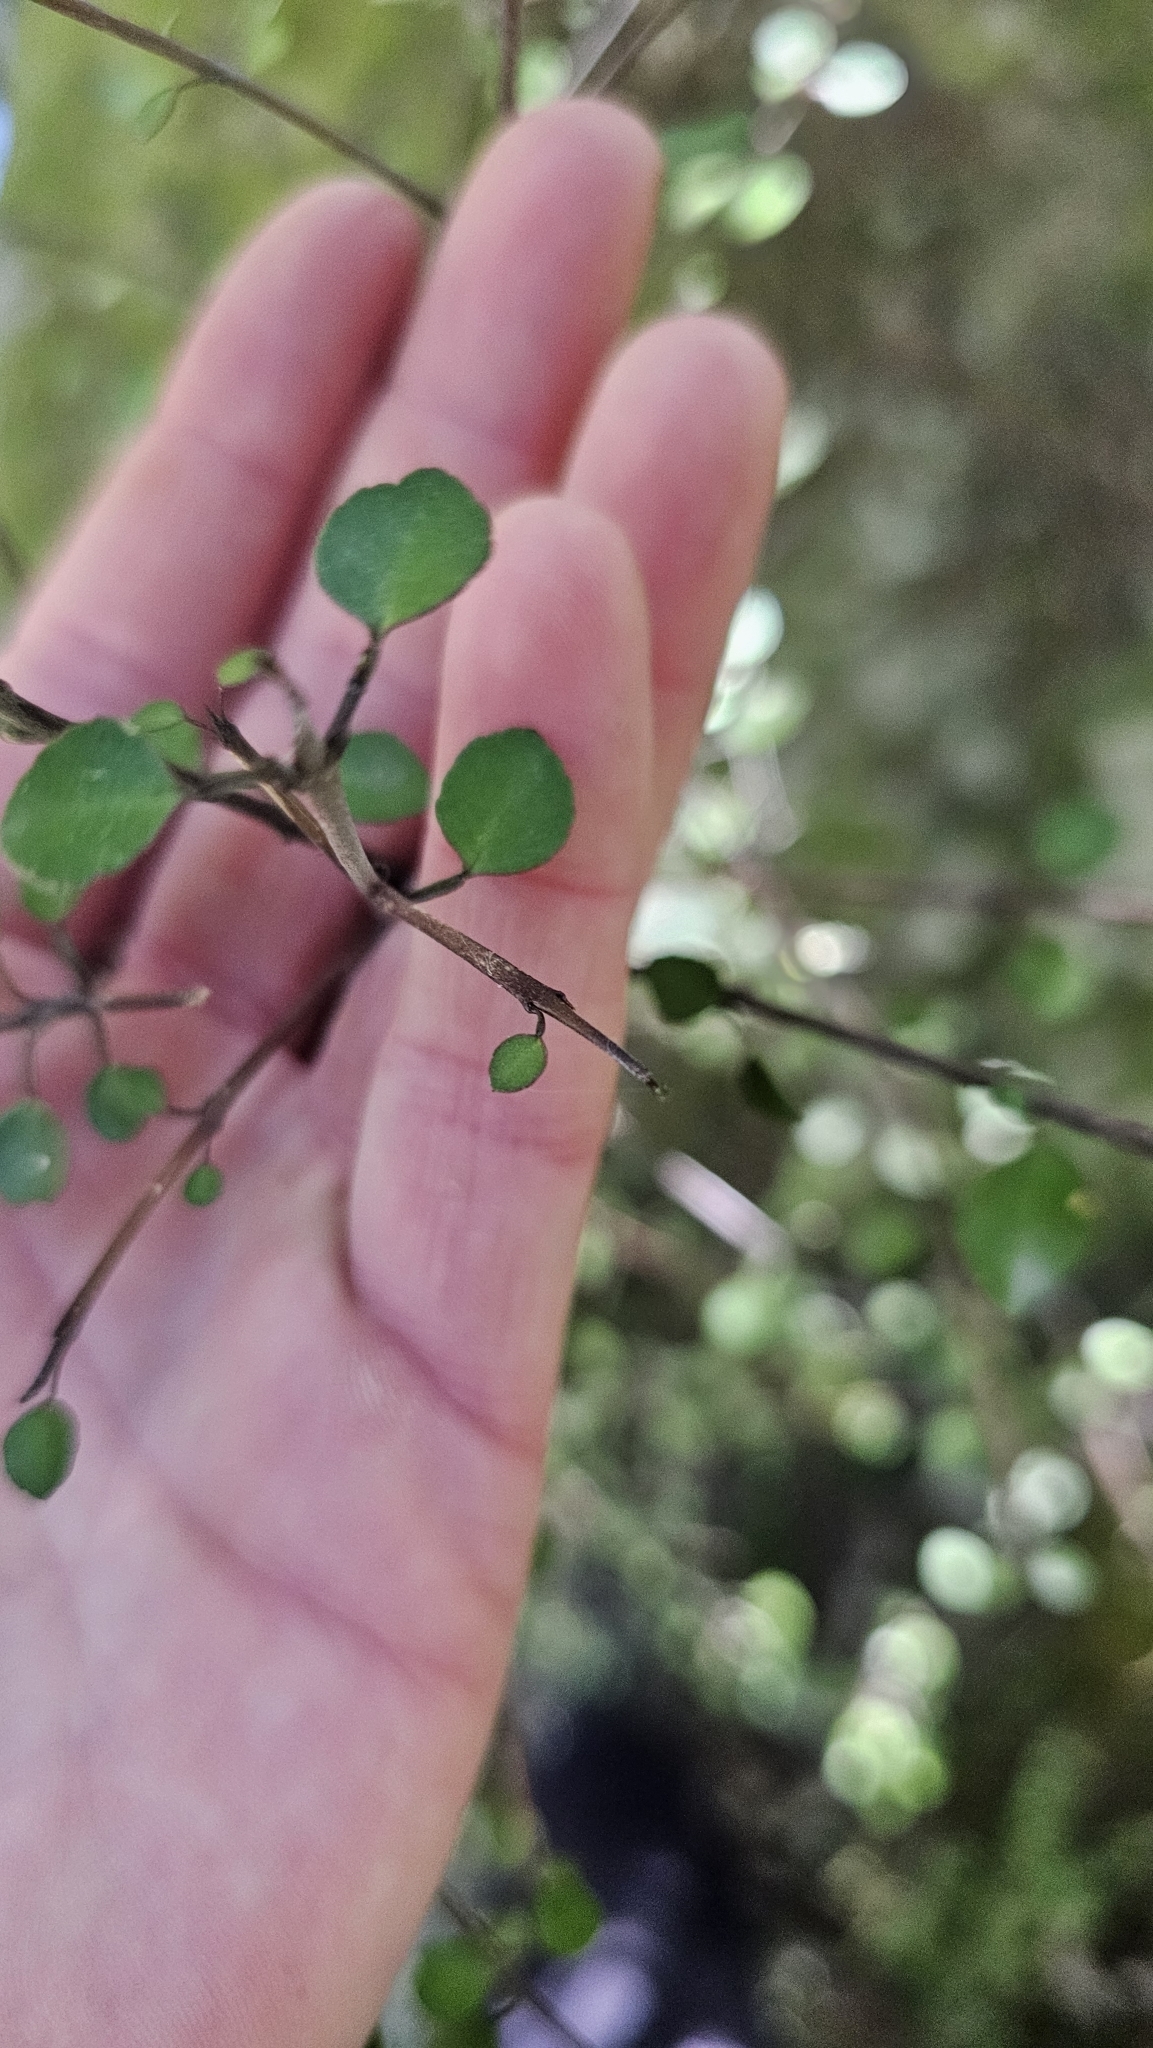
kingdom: Plantae
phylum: Tracheophyta
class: Magnoliopsida
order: Sapindales
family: Rutaceae
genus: Melicope
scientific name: Melicope simplex
